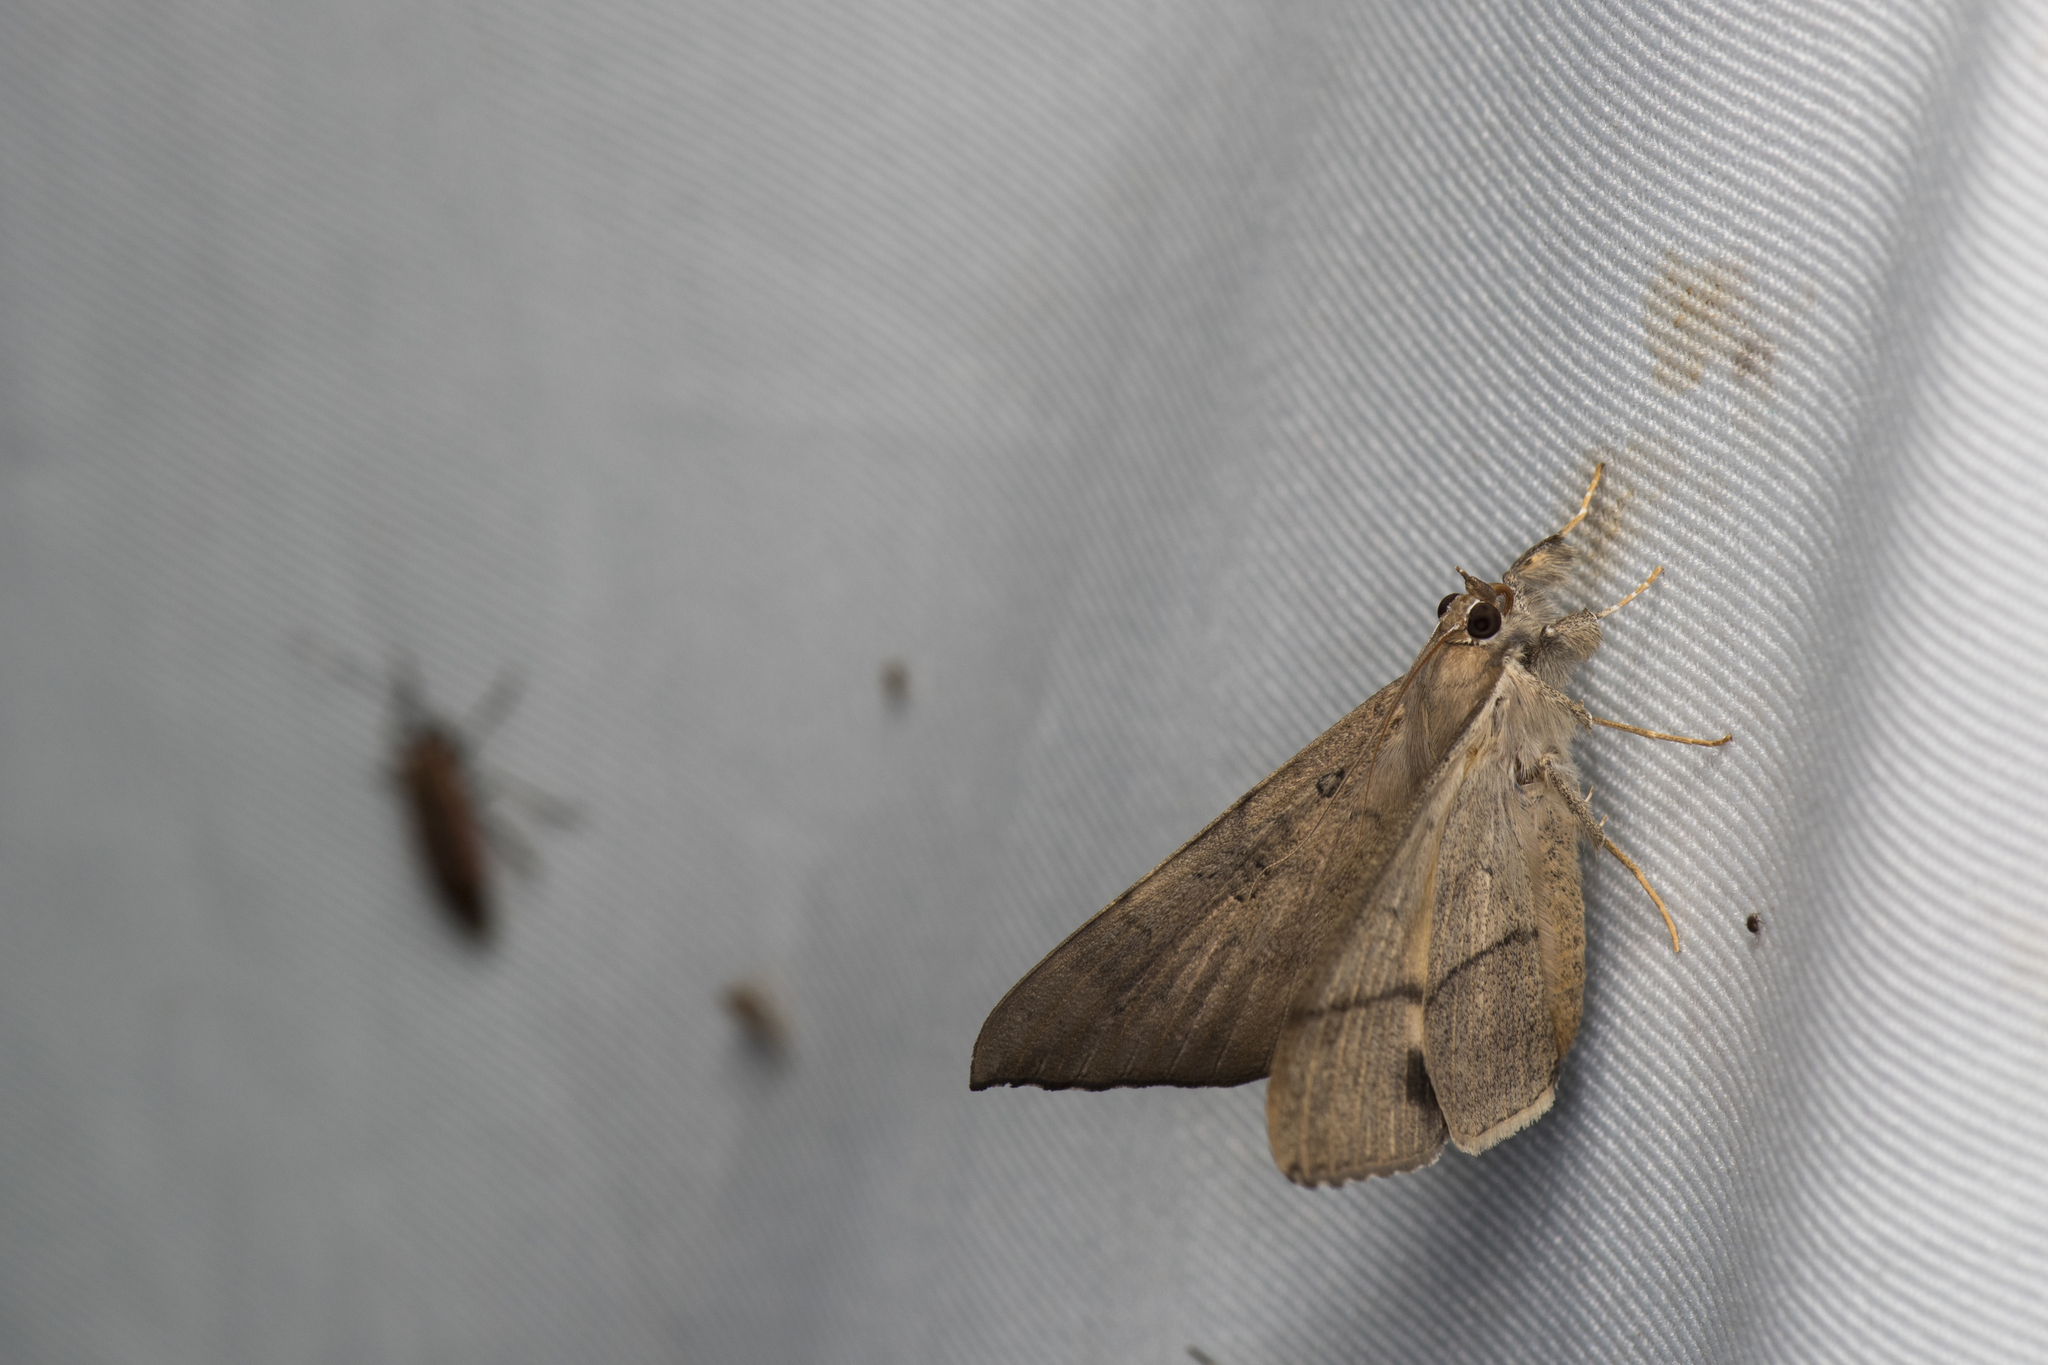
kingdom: Animalia
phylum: Arthropoda
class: Insecta
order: Lepidoptera
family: Erebidae
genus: Oxyodes
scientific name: Oxyodes scrobiculata
